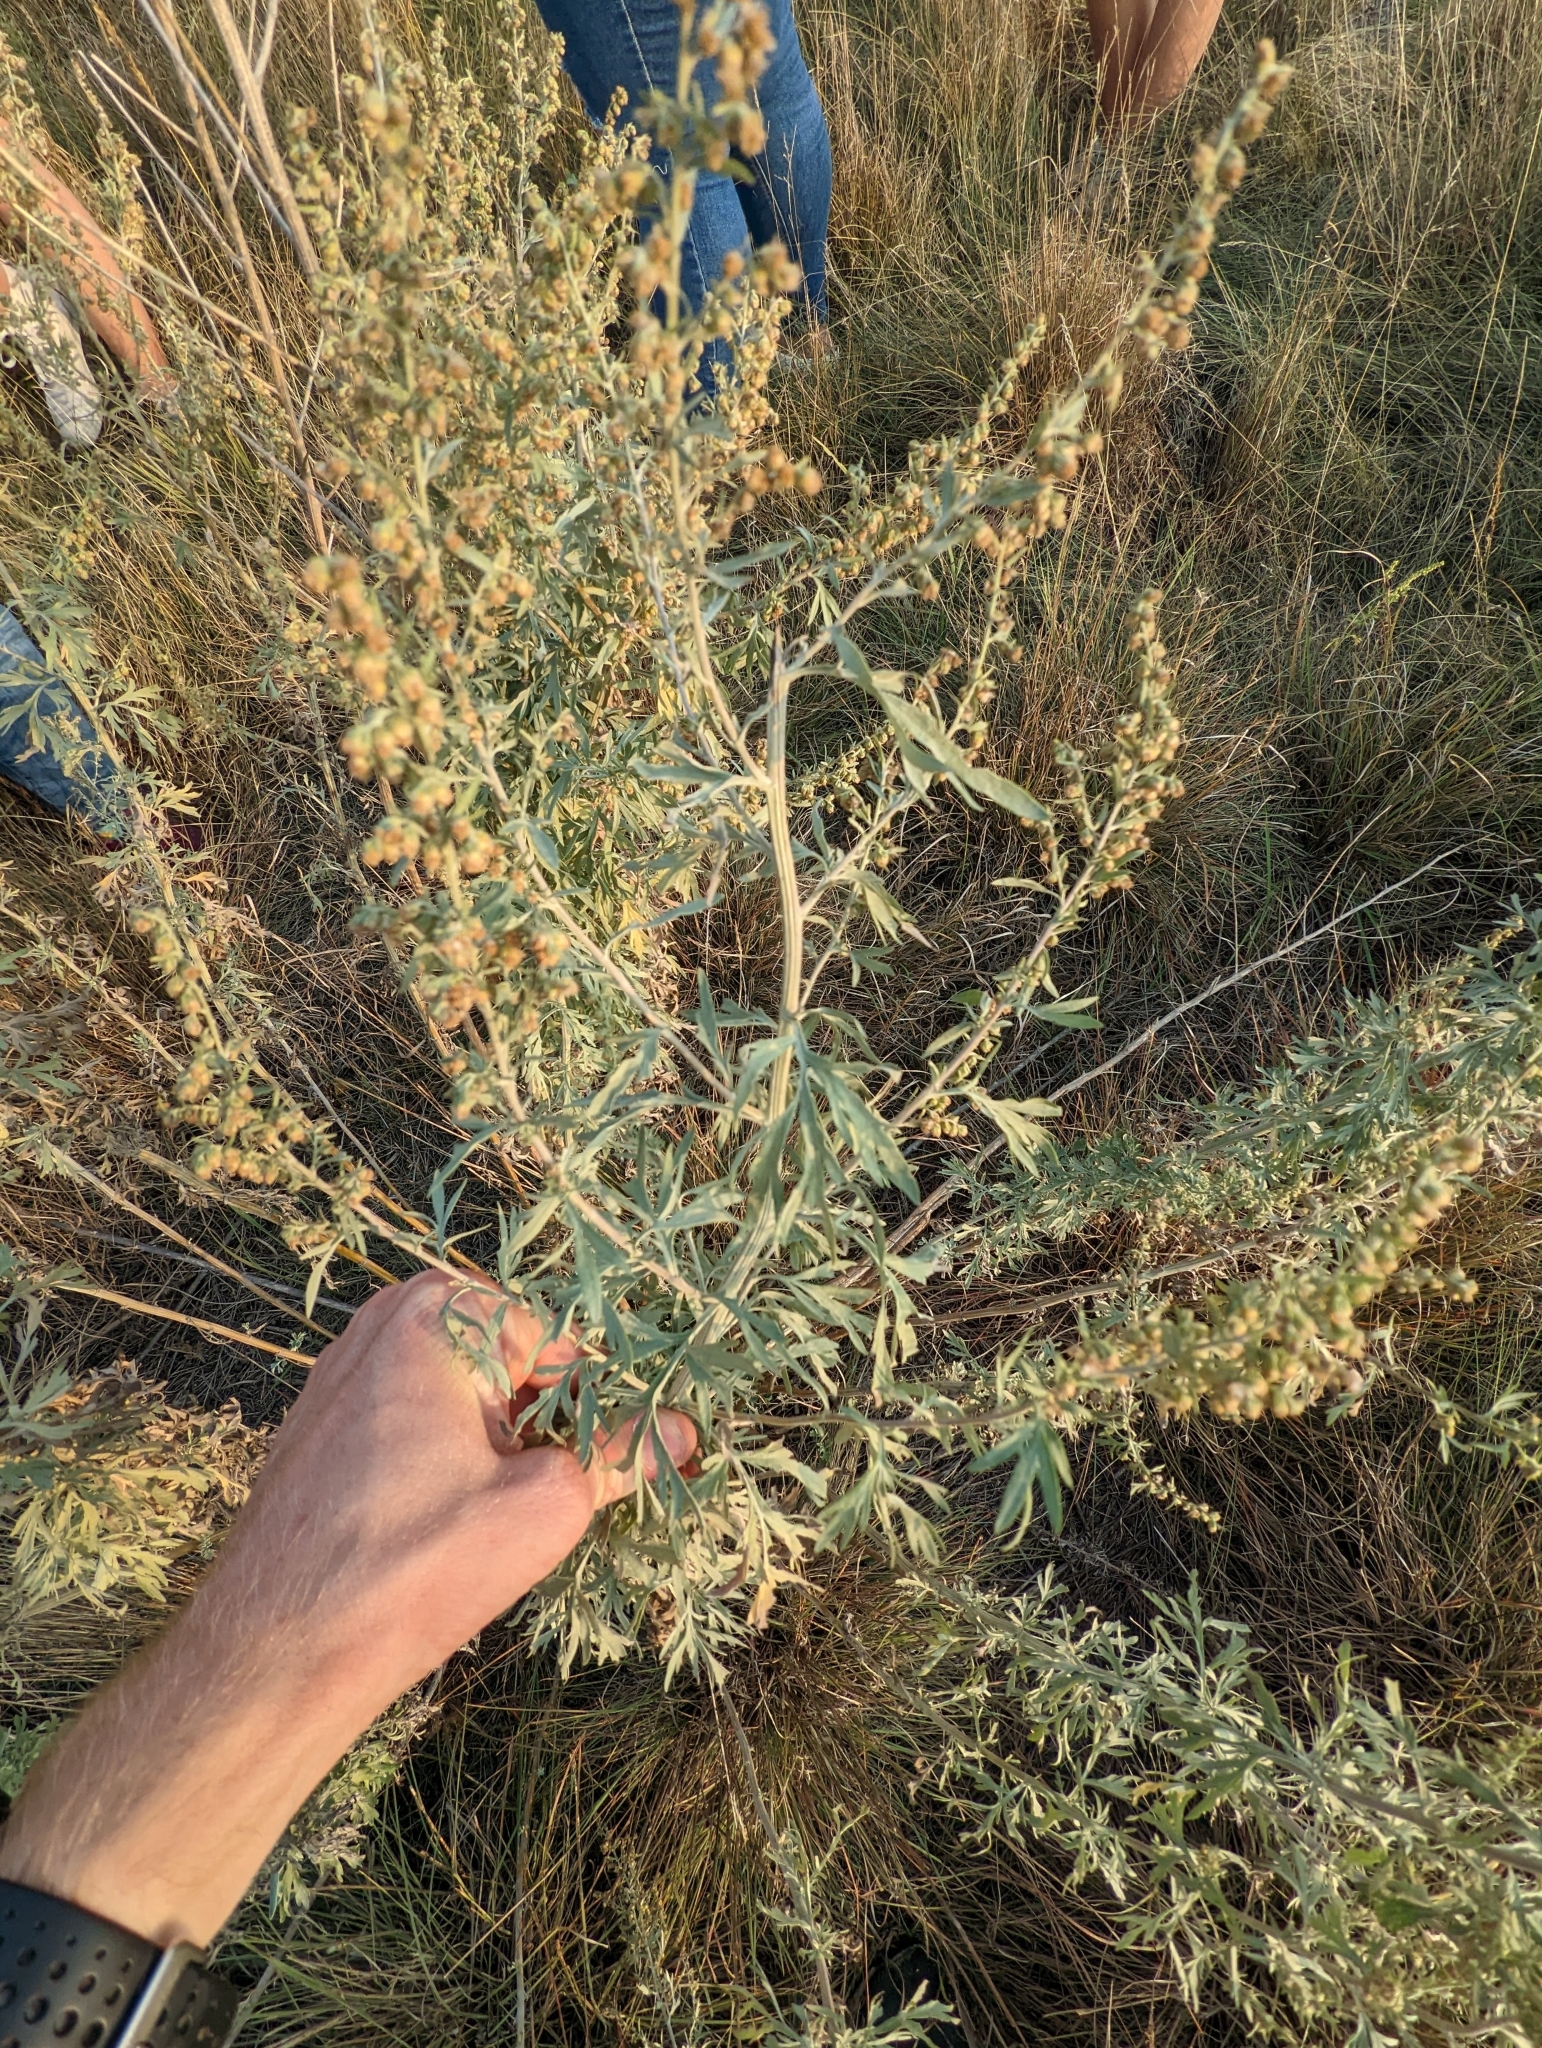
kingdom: Plantae
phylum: Tracheophyta
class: Magnoliopsida
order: Asterales
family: Asteraceae
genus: Artemisia
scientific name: Artemisia ludoviciana
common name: Western mugwort
